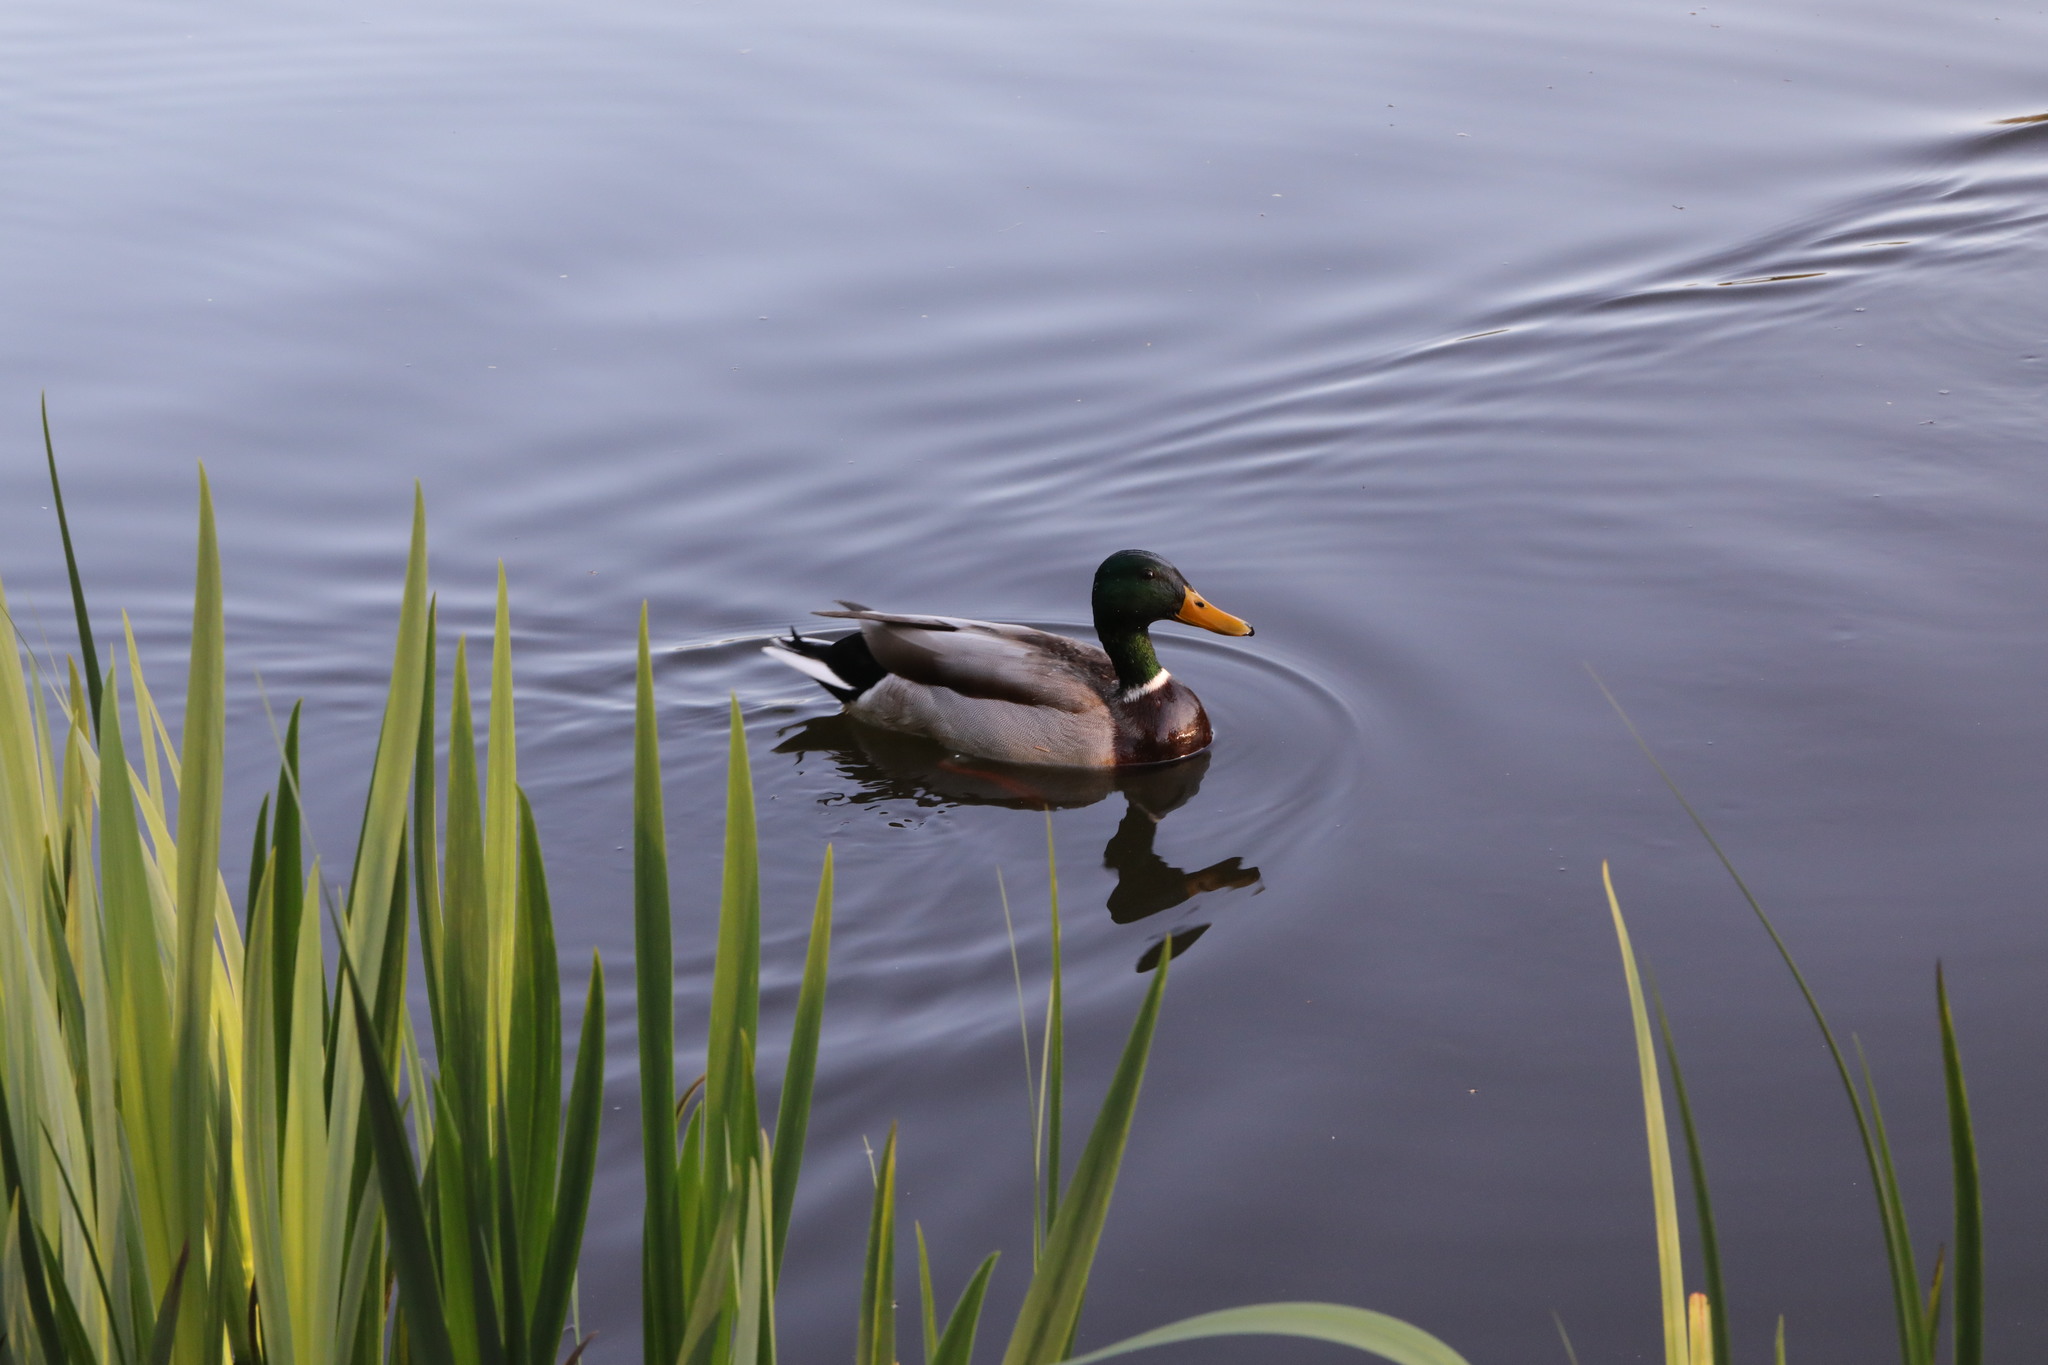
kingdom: Animalia
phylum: Chordata
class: Aves
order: Anseriformes
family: Anatidae
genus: Anas
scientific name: Anas platyrhynchos
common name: Mallard
